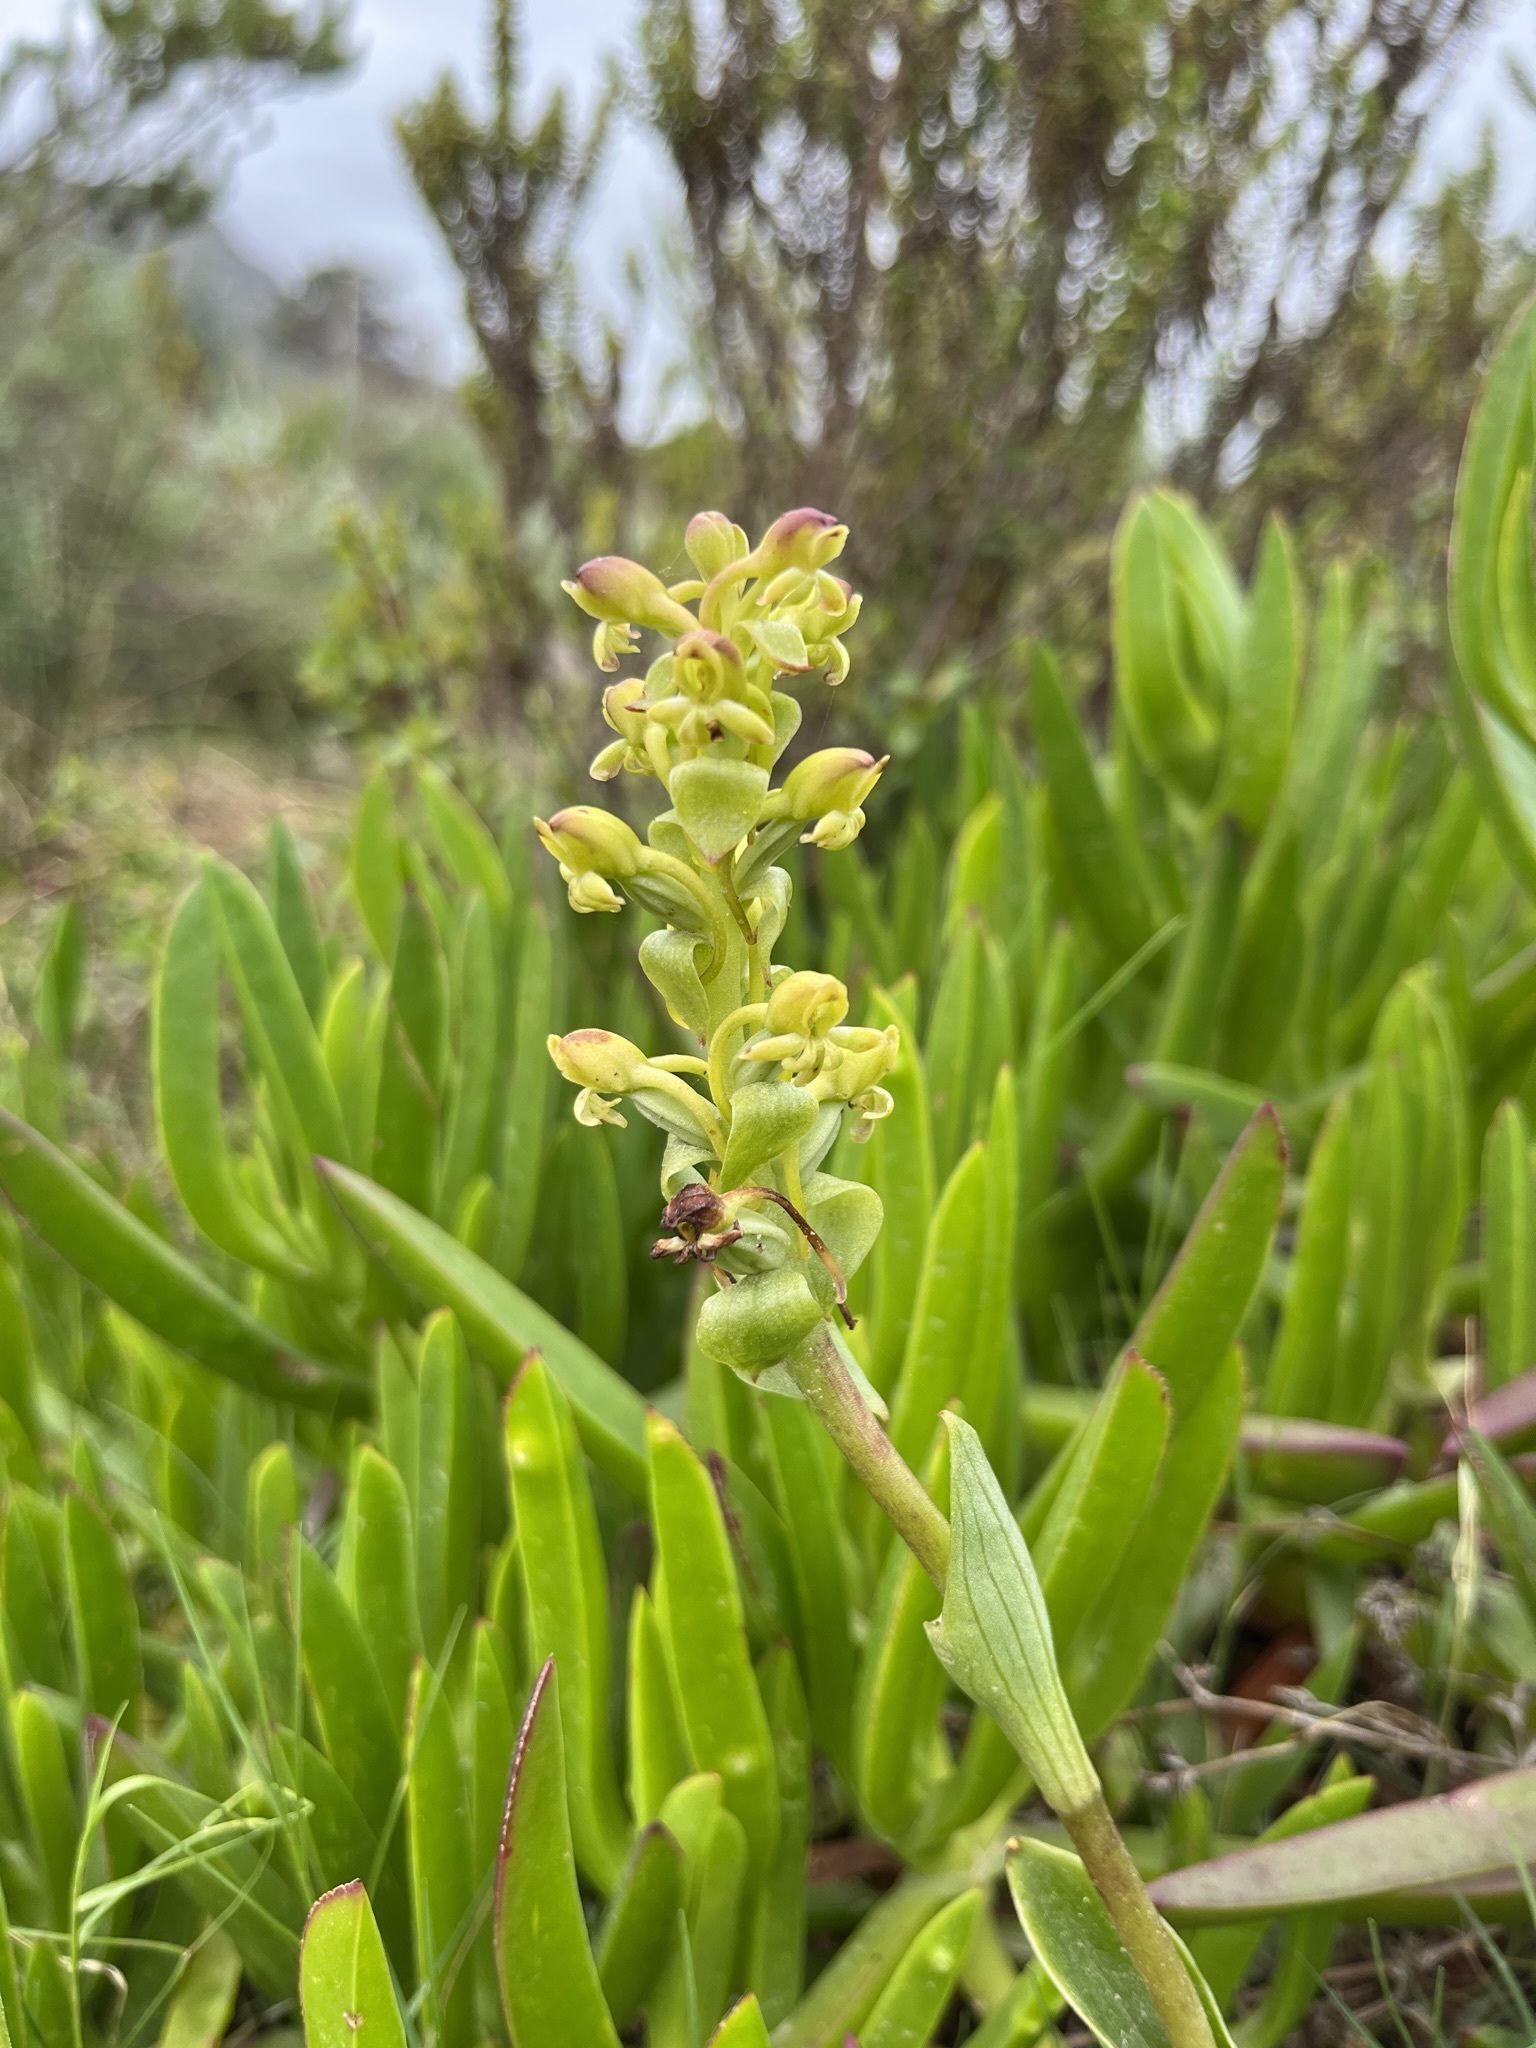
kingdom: Plantae
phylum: Tracheophyta
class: Liliopsida
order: Asparagales
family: Orchidaceae
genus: Satyrium
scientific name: Satyrium odorum
